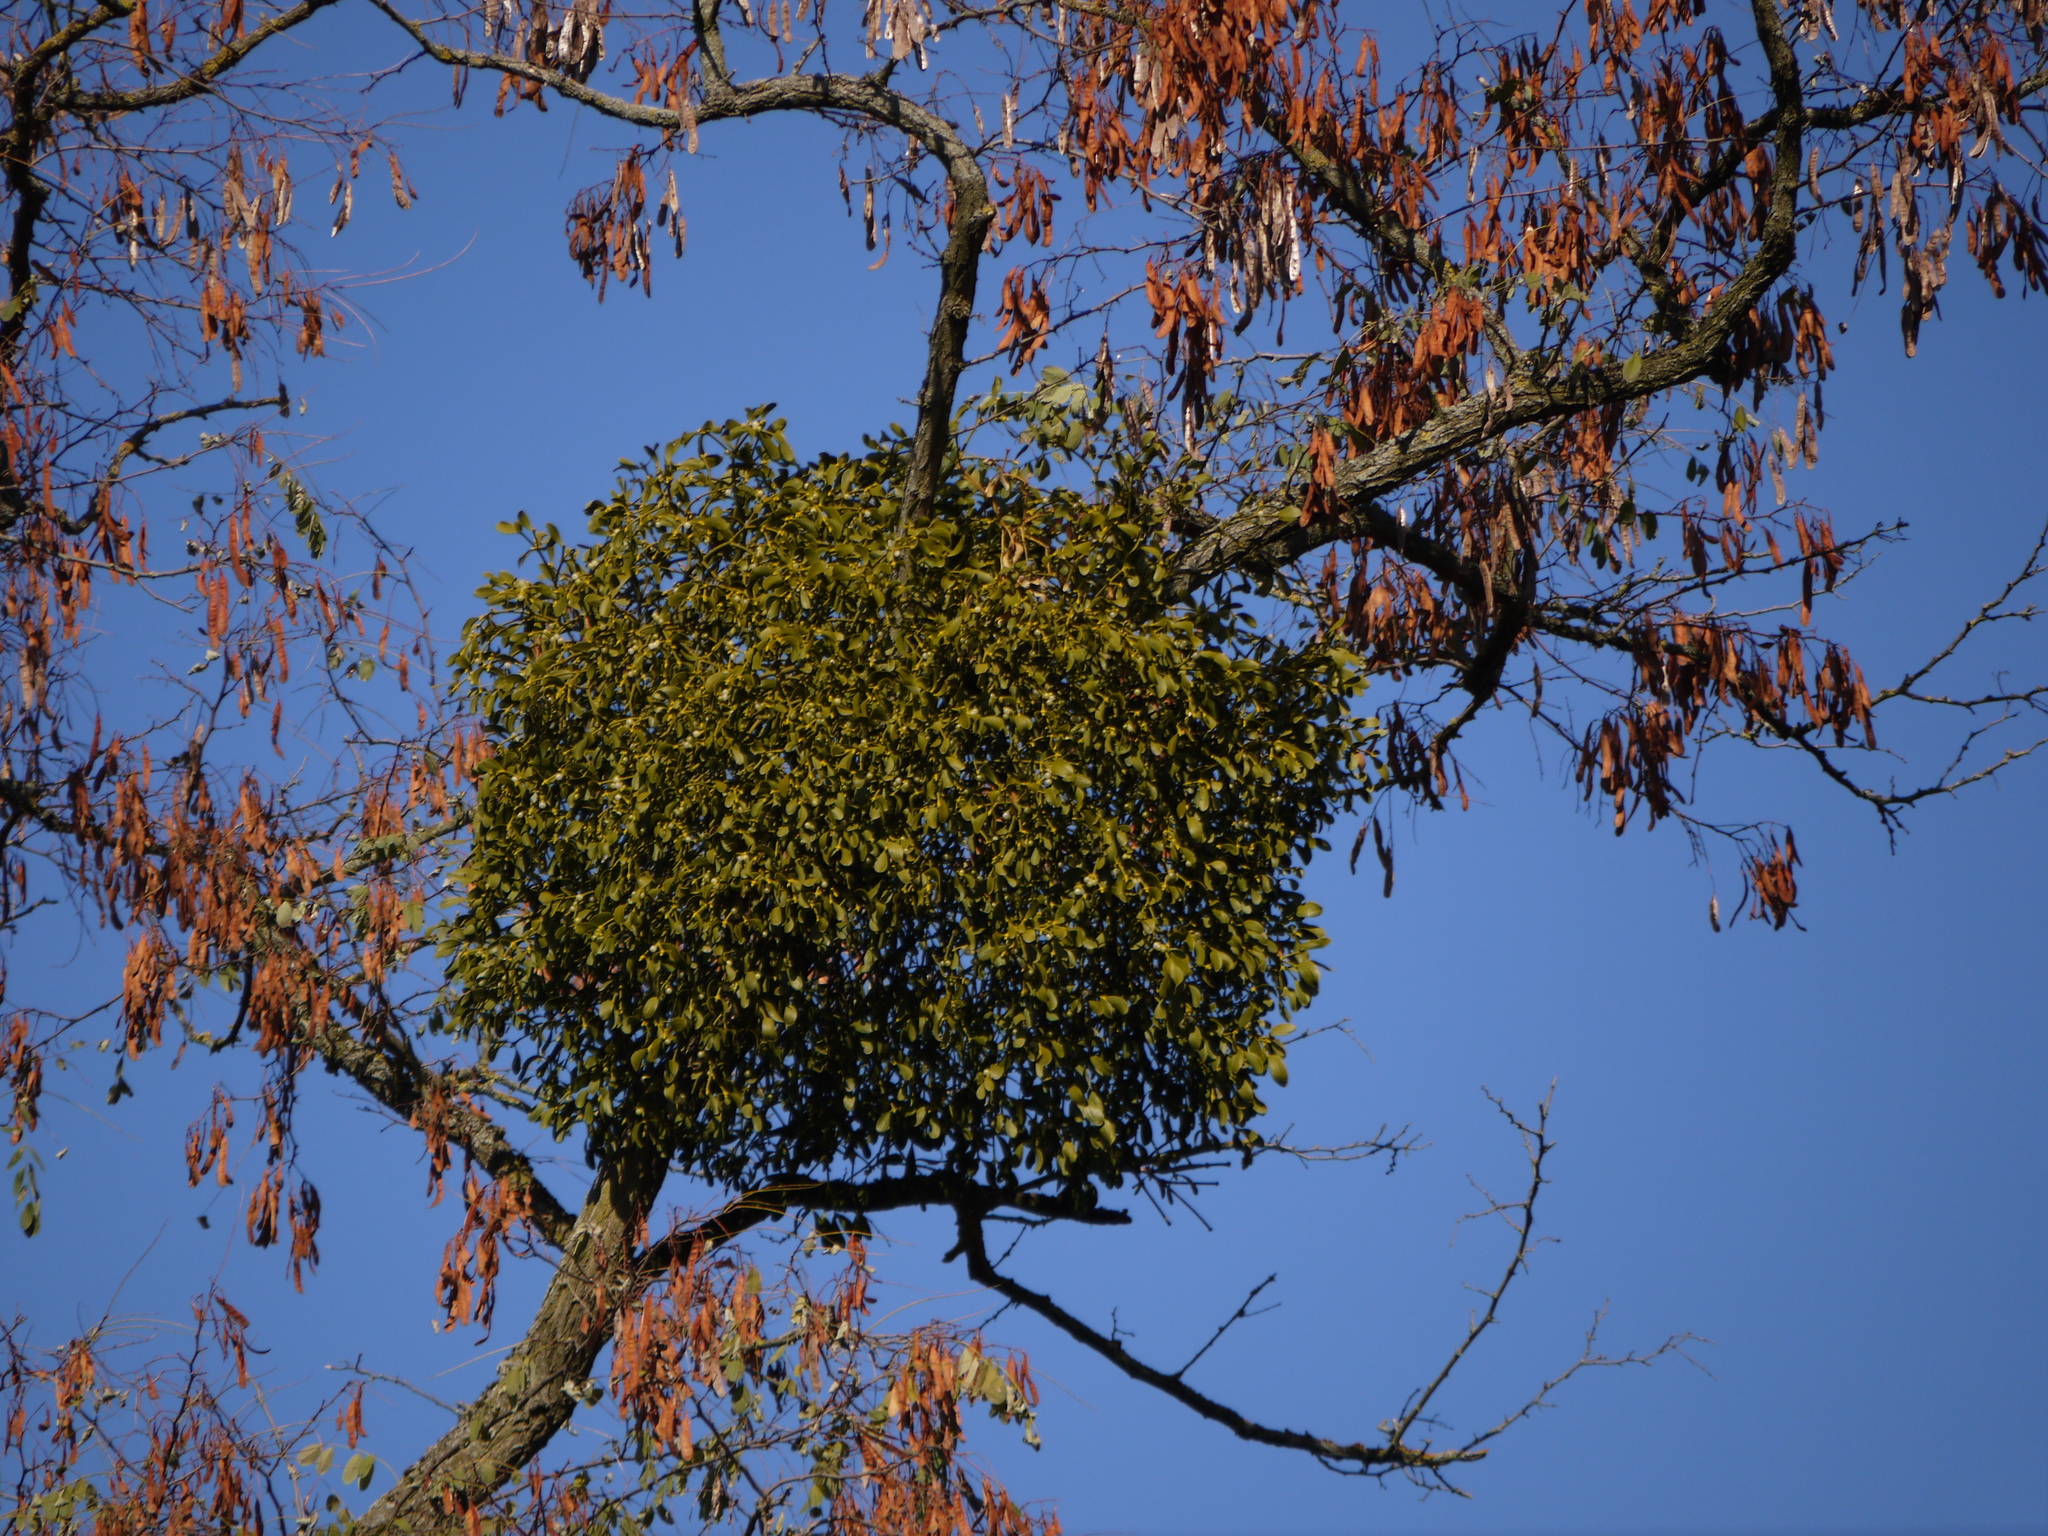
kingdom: Plantae
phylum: Tracheophyta
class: Magnoliopsida
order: Santalales
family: Viscaceae
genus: Viscum
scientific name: Viscum album
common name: Mistletoe
